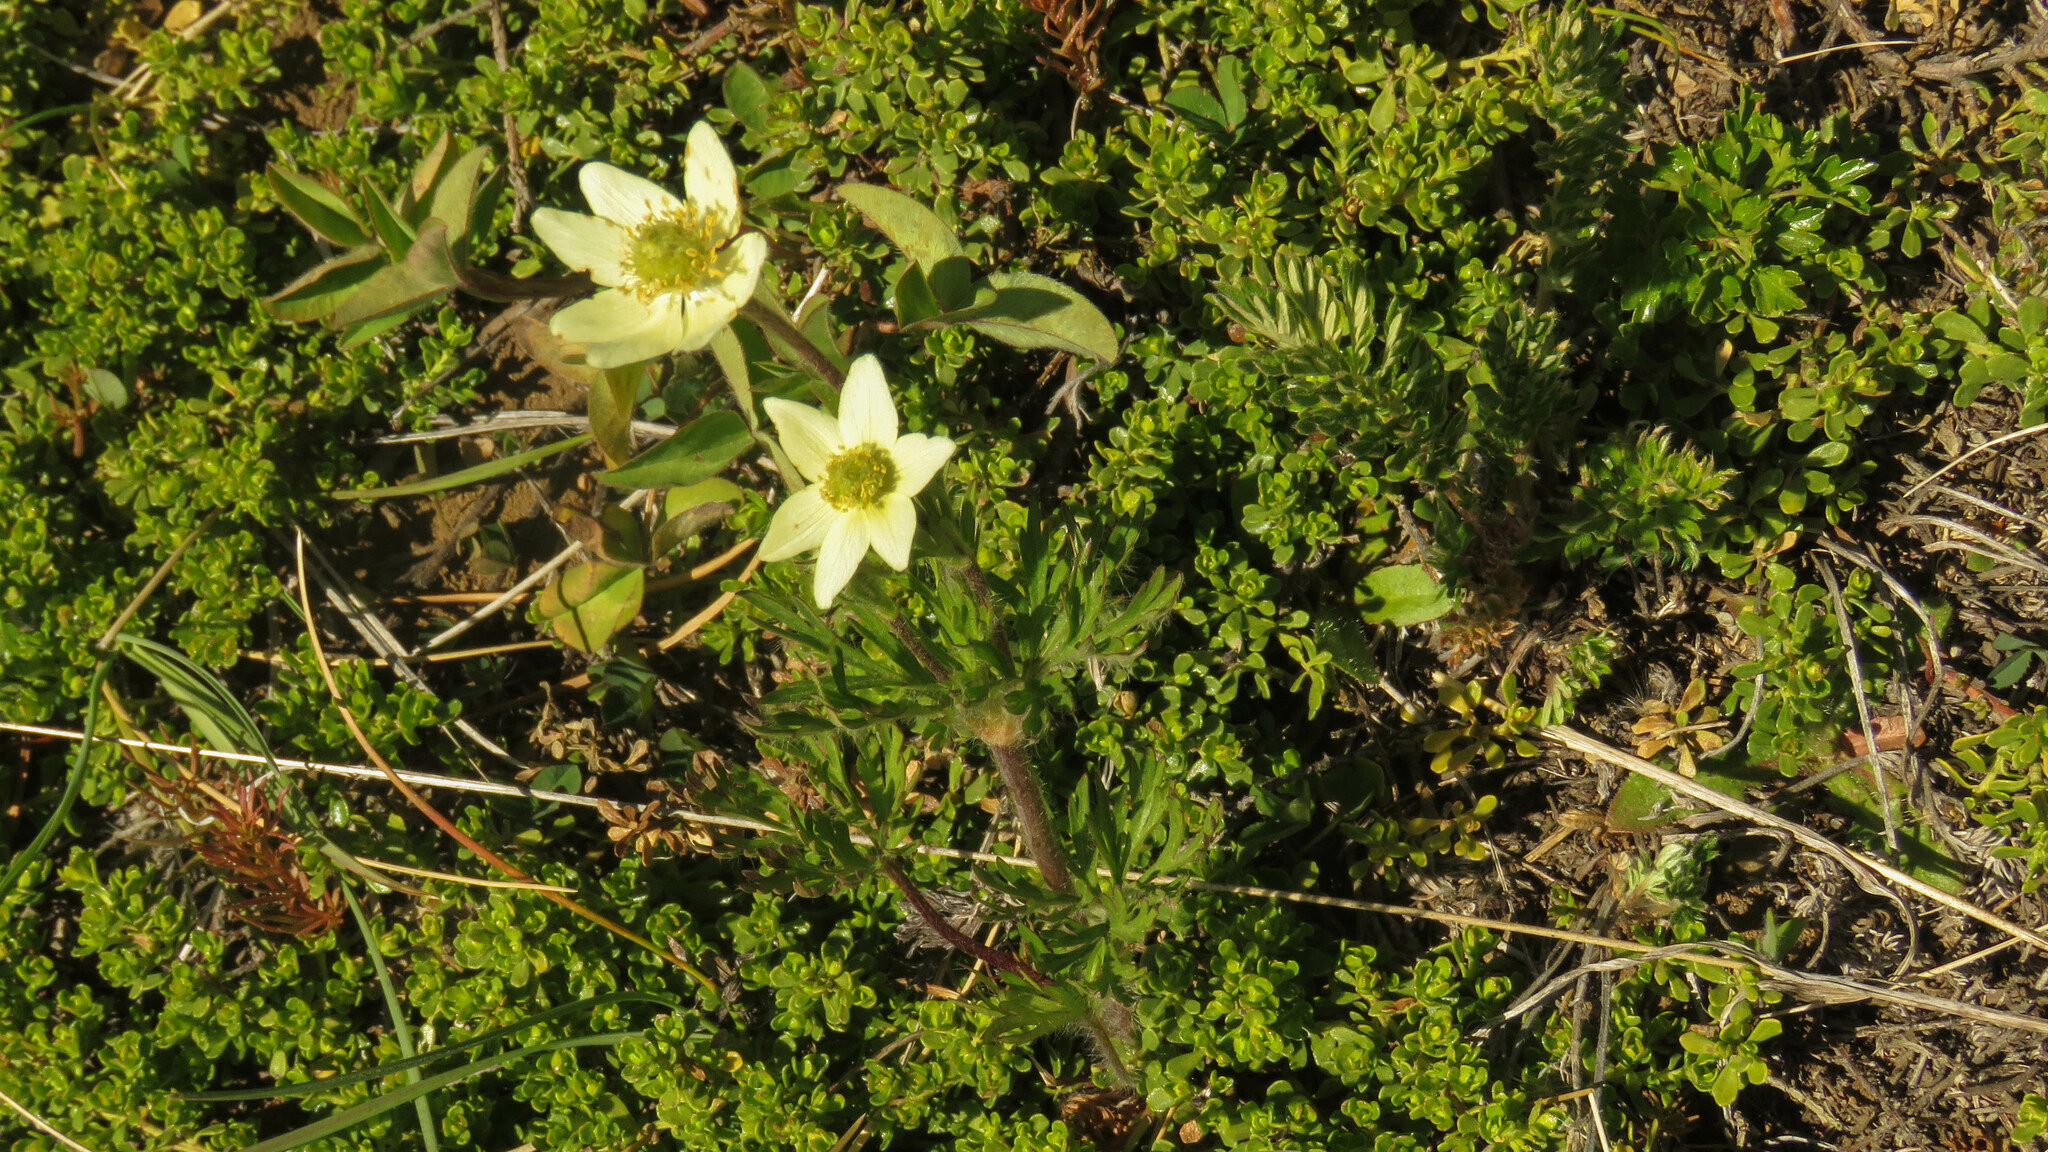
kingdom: Plantae
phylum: Tracheophyta
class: Magnoliopsida
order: Ranunculales
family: Ranunculaceae
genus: Anemone
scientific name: Anemone multifida
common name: Bird's-foot anemone
